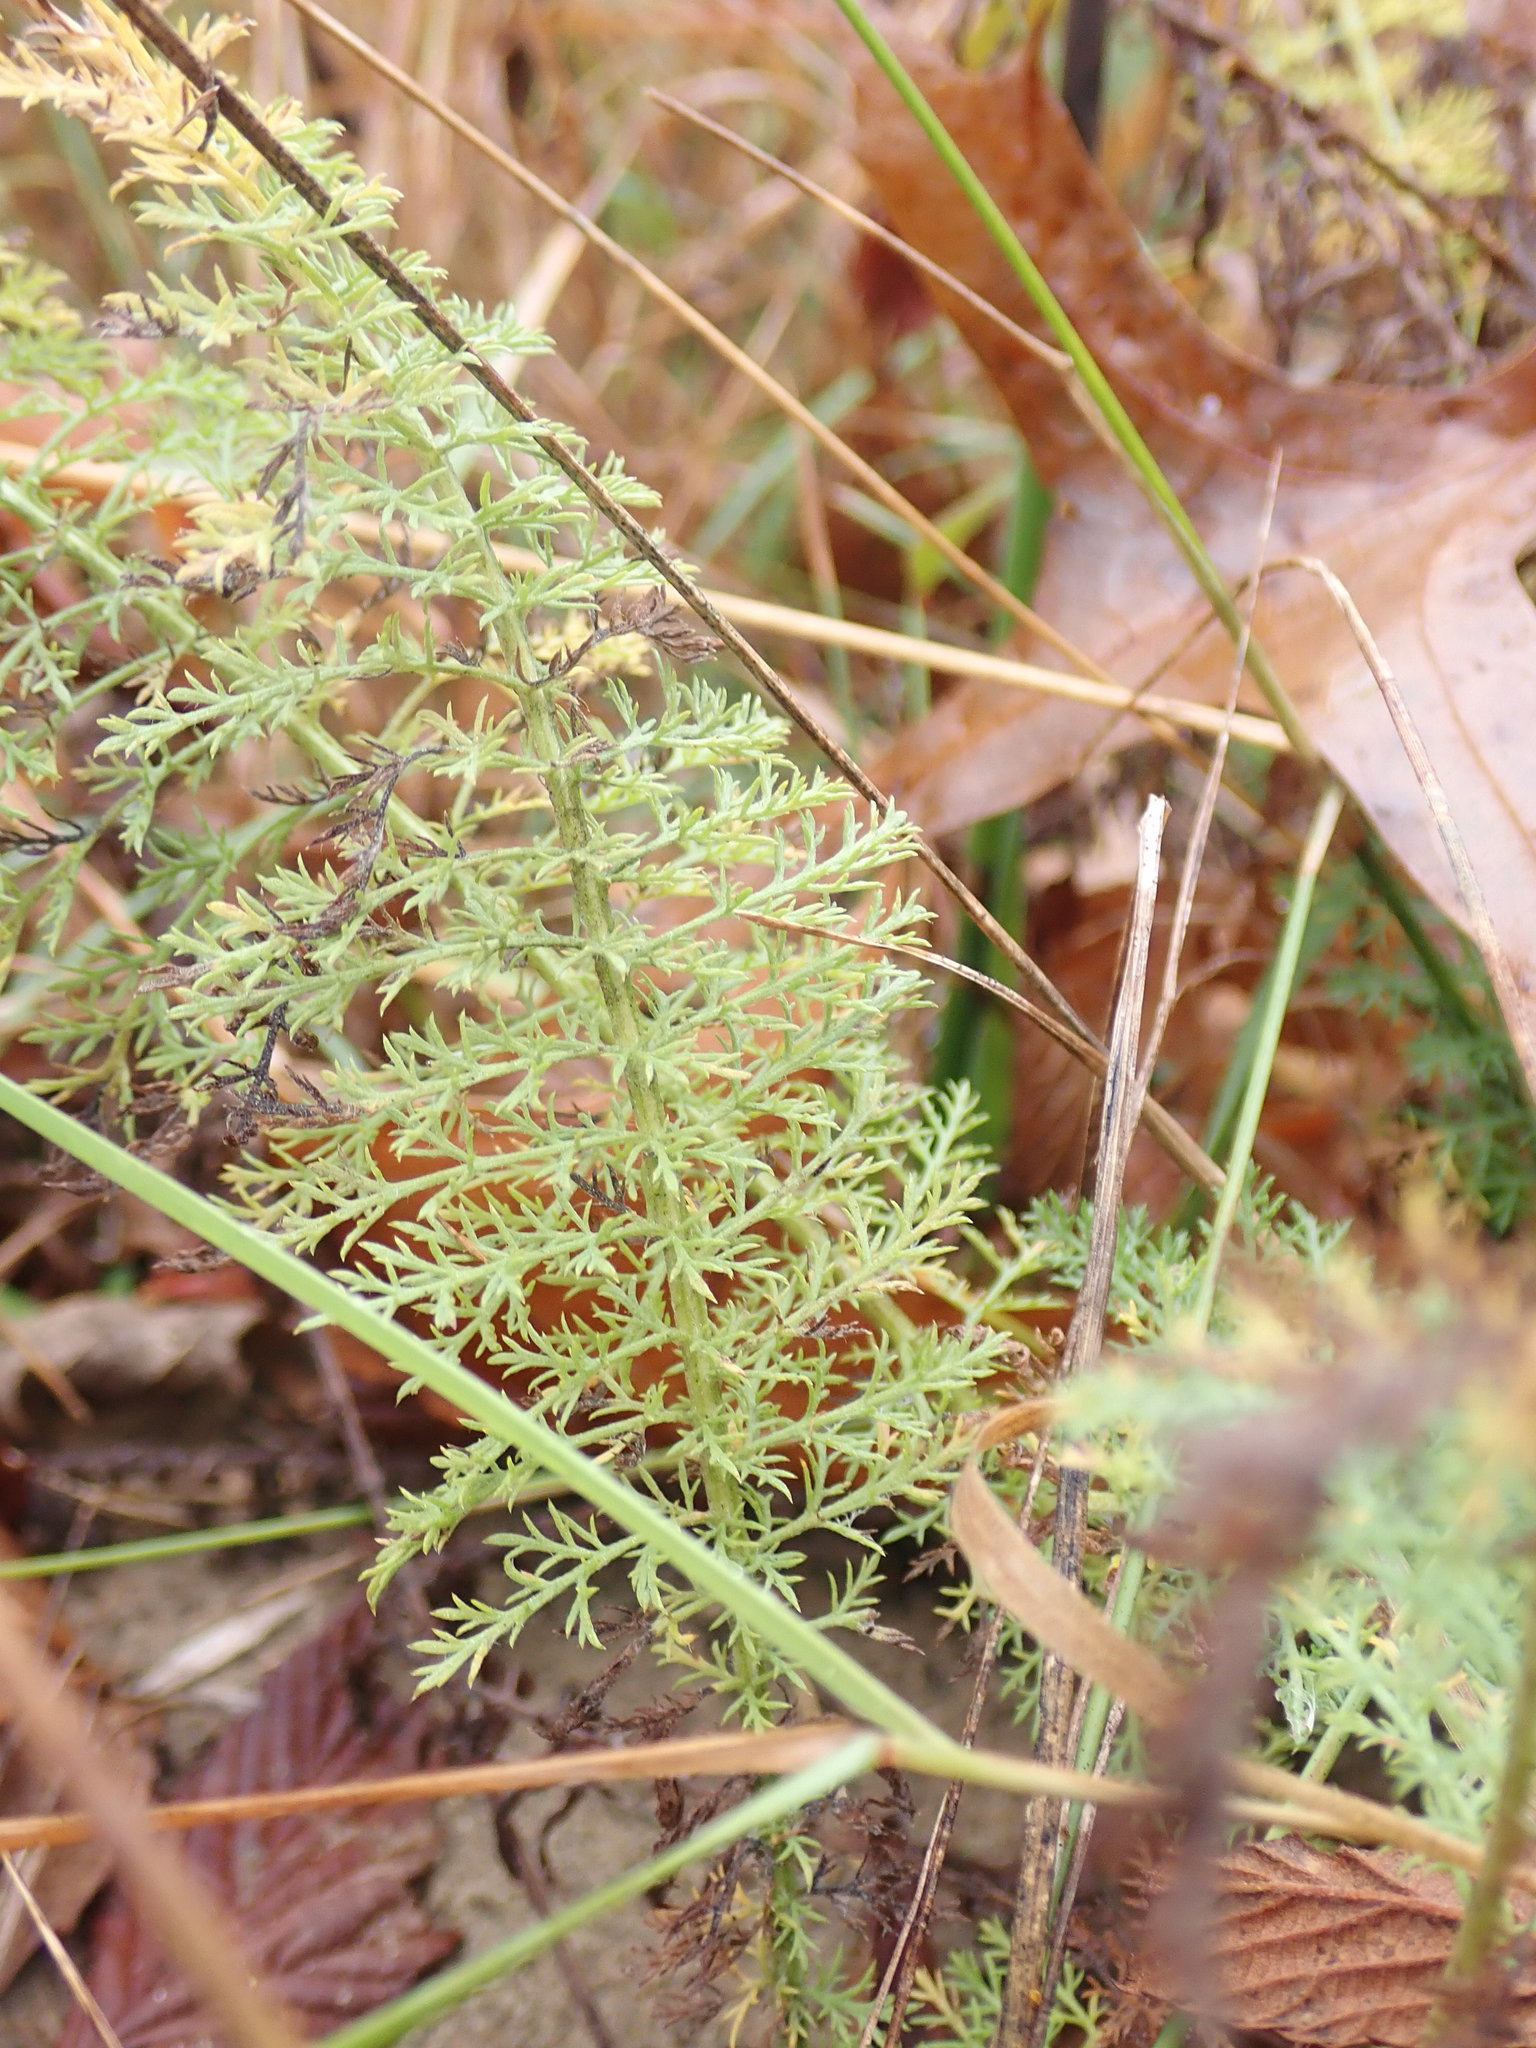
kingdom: Plantae
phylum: Tracheophyta
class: Magnoliopsida
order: Asterales
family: Asteraceae
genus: Achillea
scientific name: Achillea millefolium
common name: Yarrow
